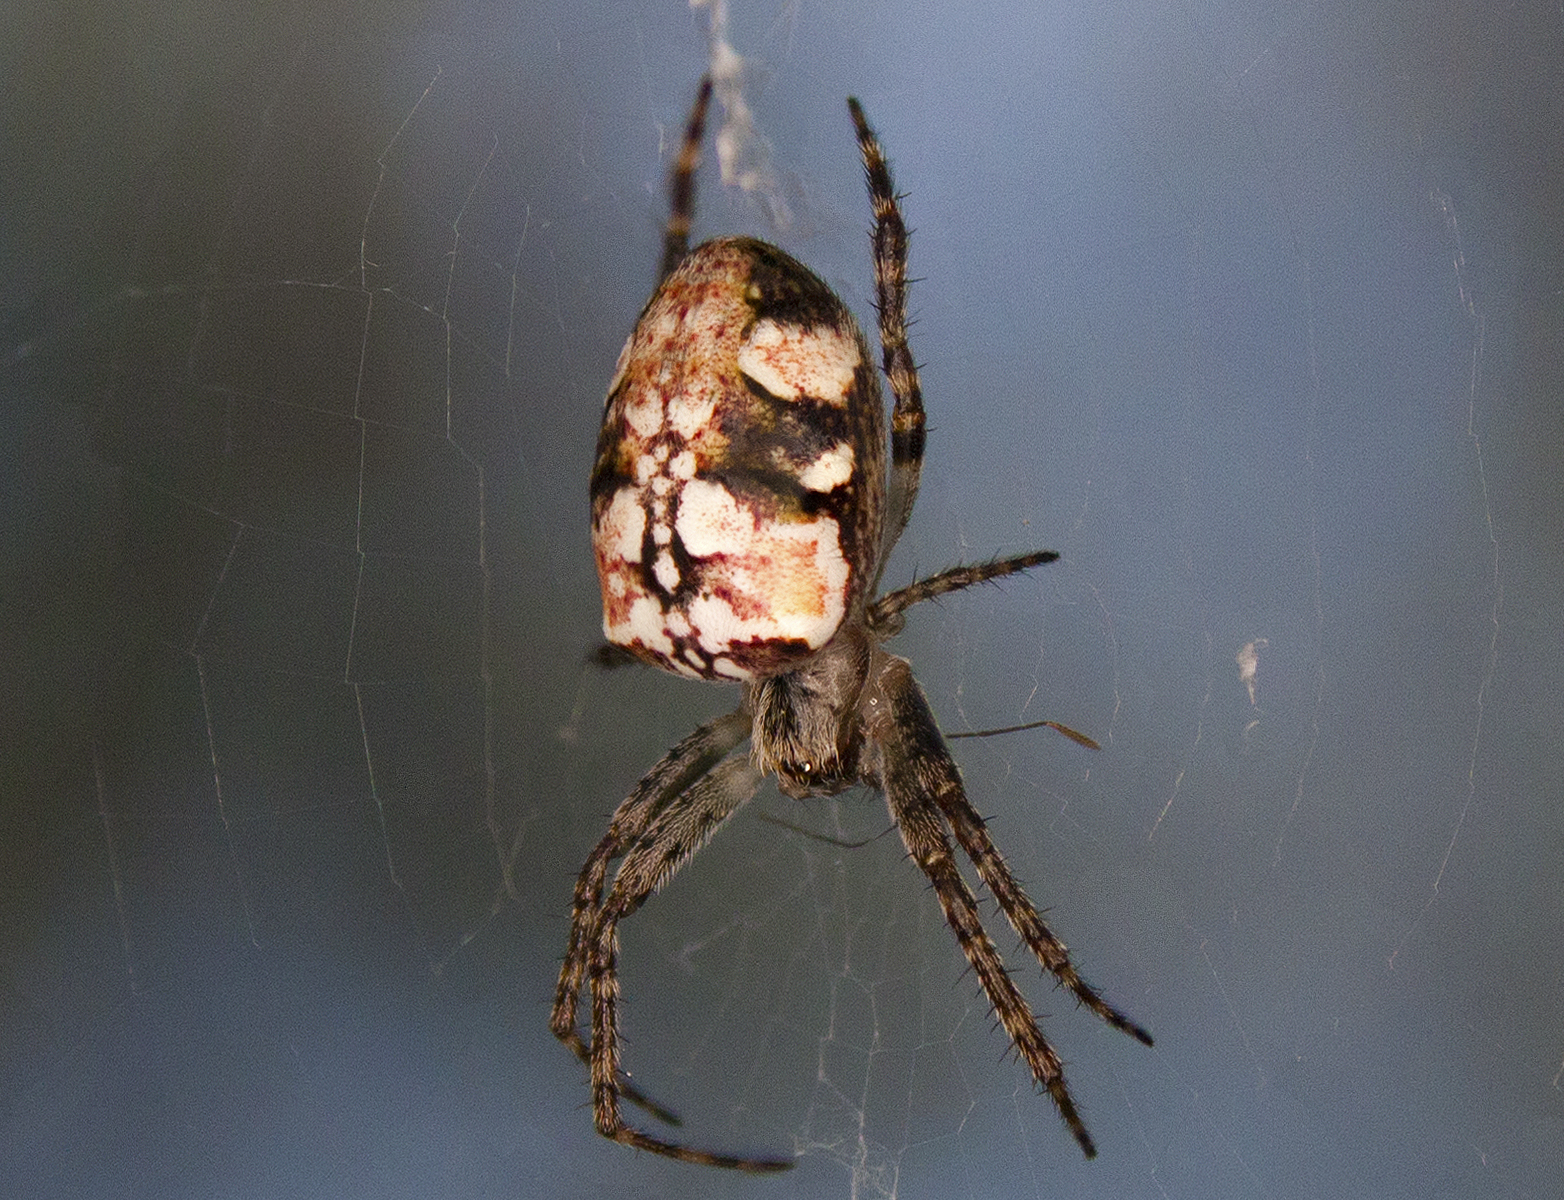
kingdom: Animalia
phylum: Arthropoda
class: Arachnida
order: Araneae
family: Araneidae
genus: Plebs
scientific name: Plebs eburnus
